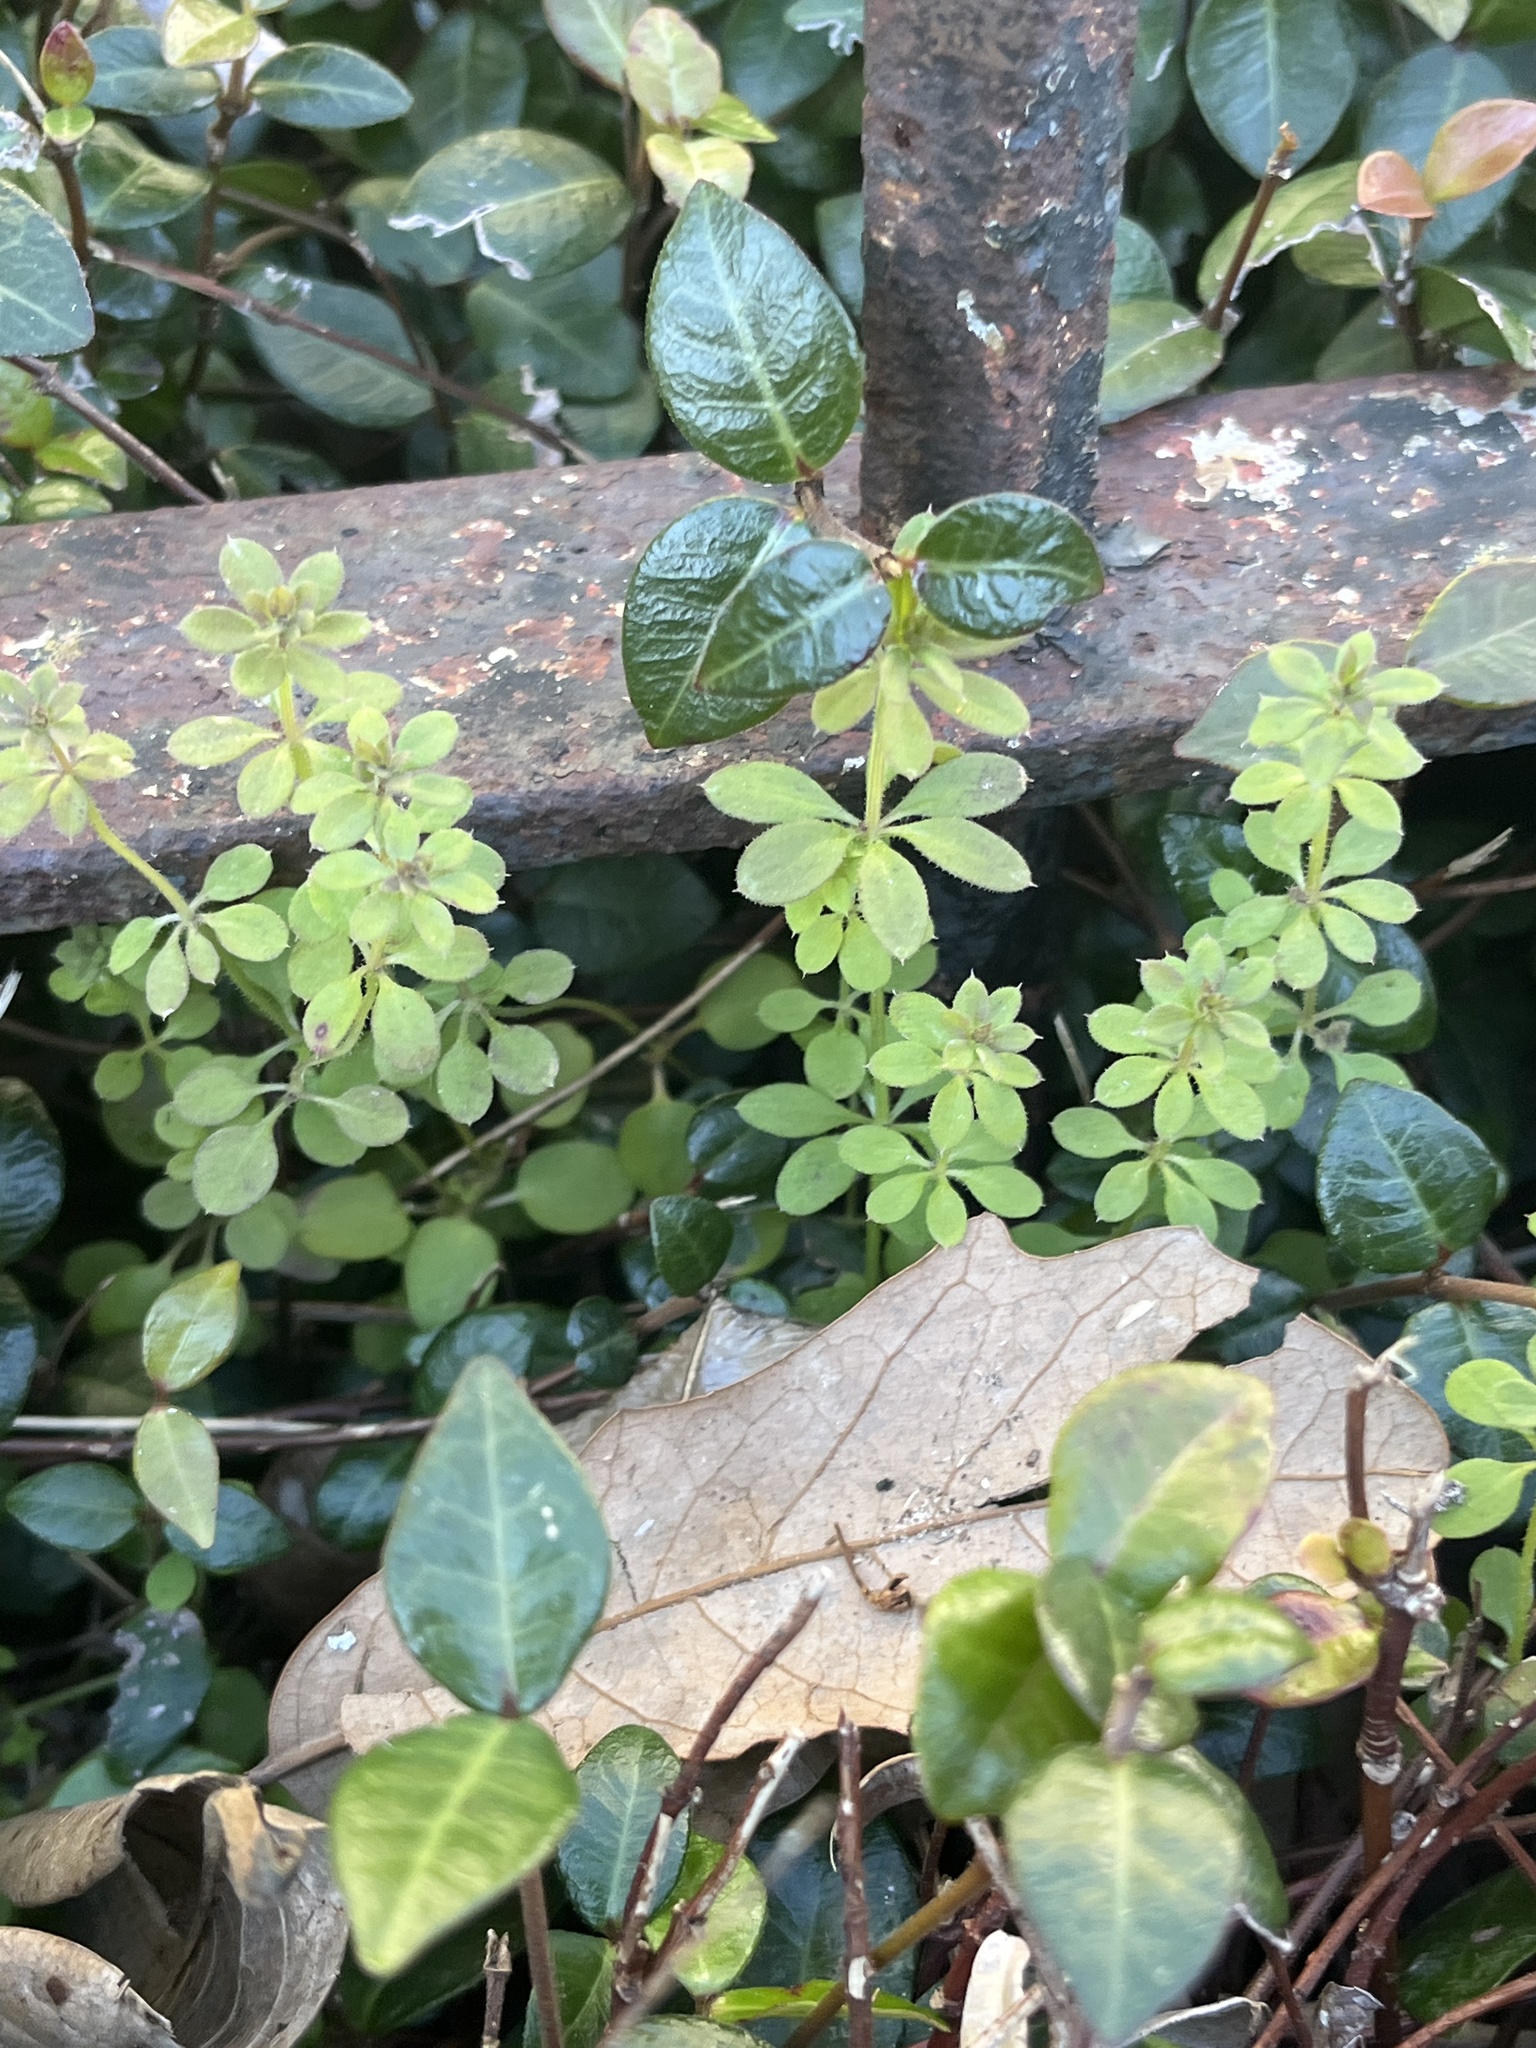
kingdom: Plantae
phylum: Tracheophyta
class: Magnoliopsida
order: Gentianales
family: Rubiaceae
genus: Galium
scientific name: Galium aparine
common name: Cleavers
